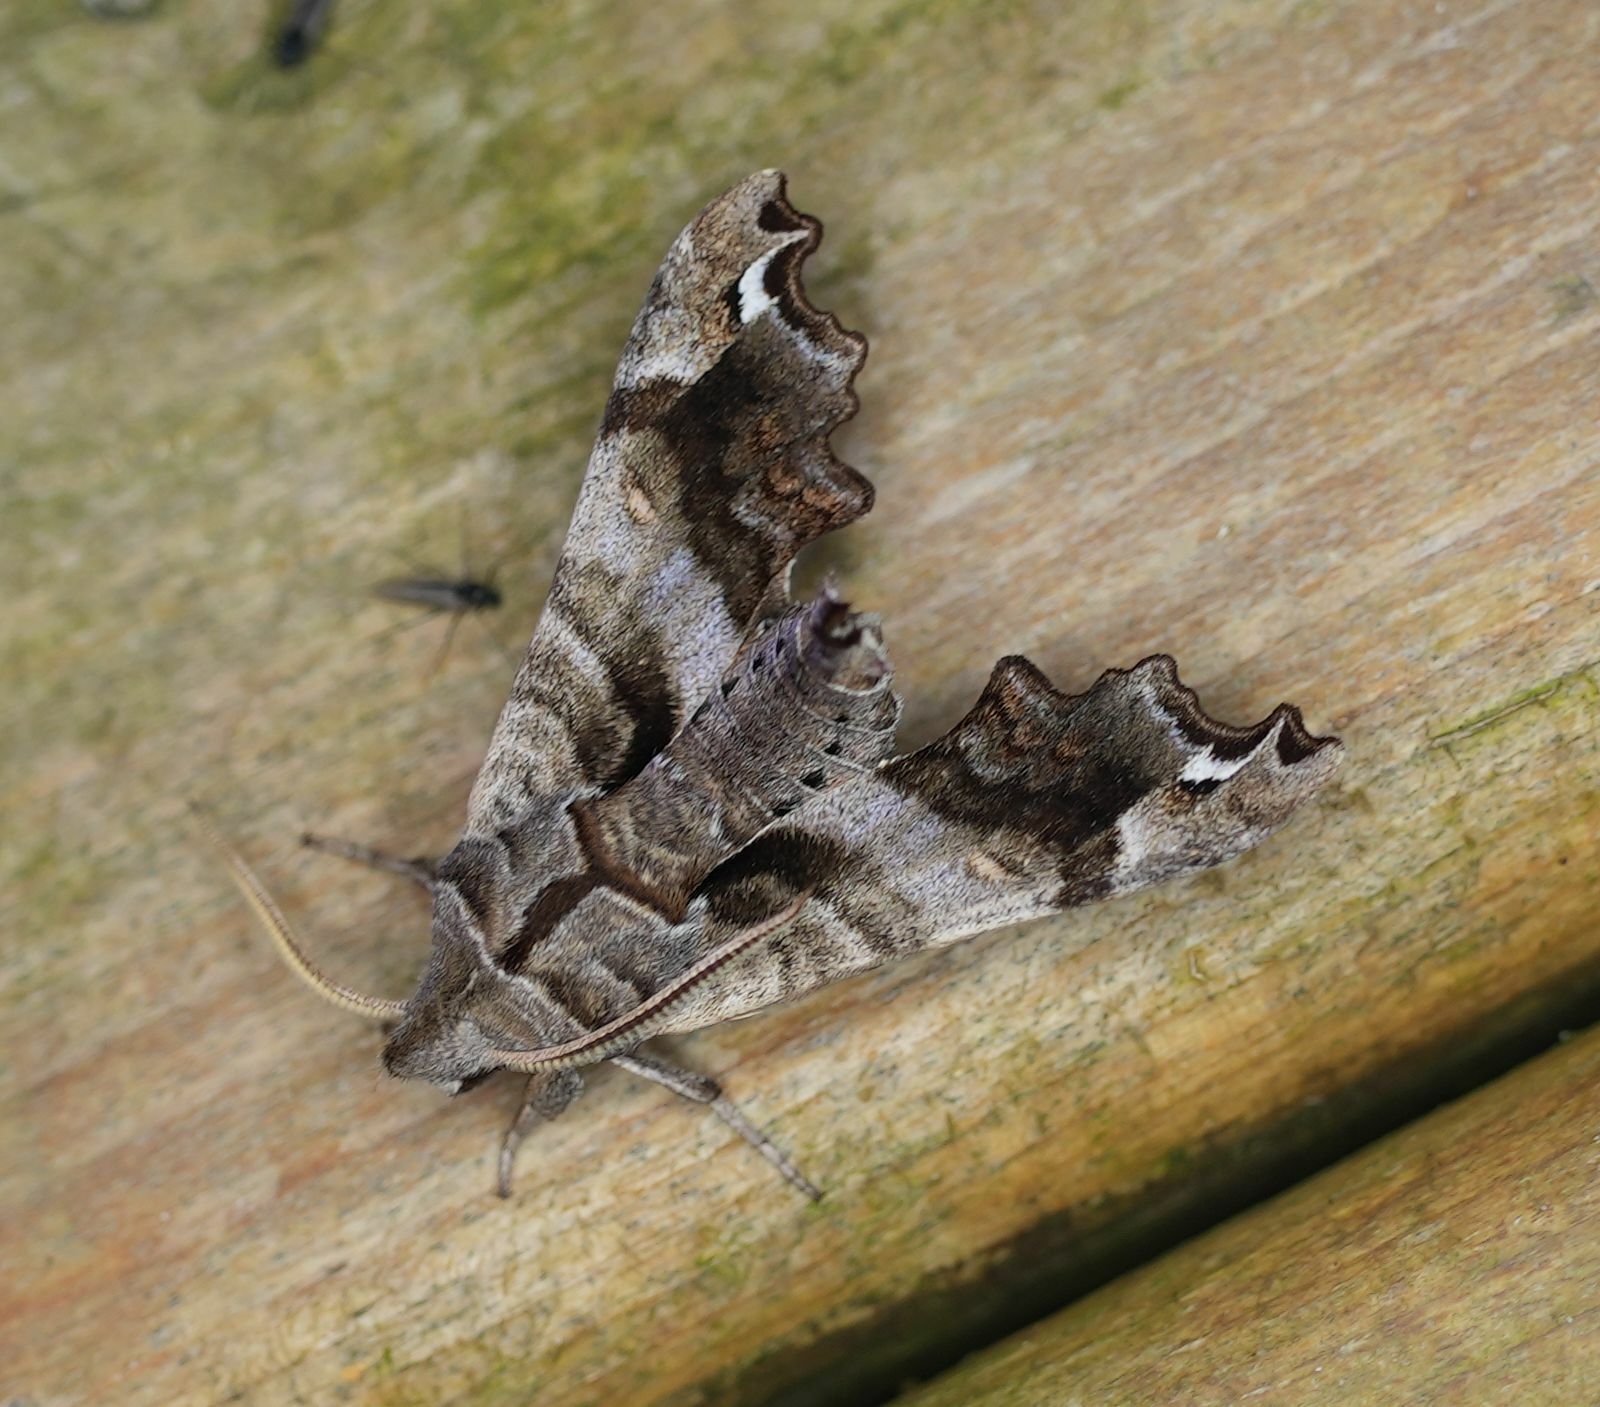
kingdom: Animalia
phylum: Arthropoda
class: Insecta
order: Lepidoptera
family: Sphingidae
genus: Deidamia
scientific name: Deidamia inscriptum
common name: Lettered sphinx
